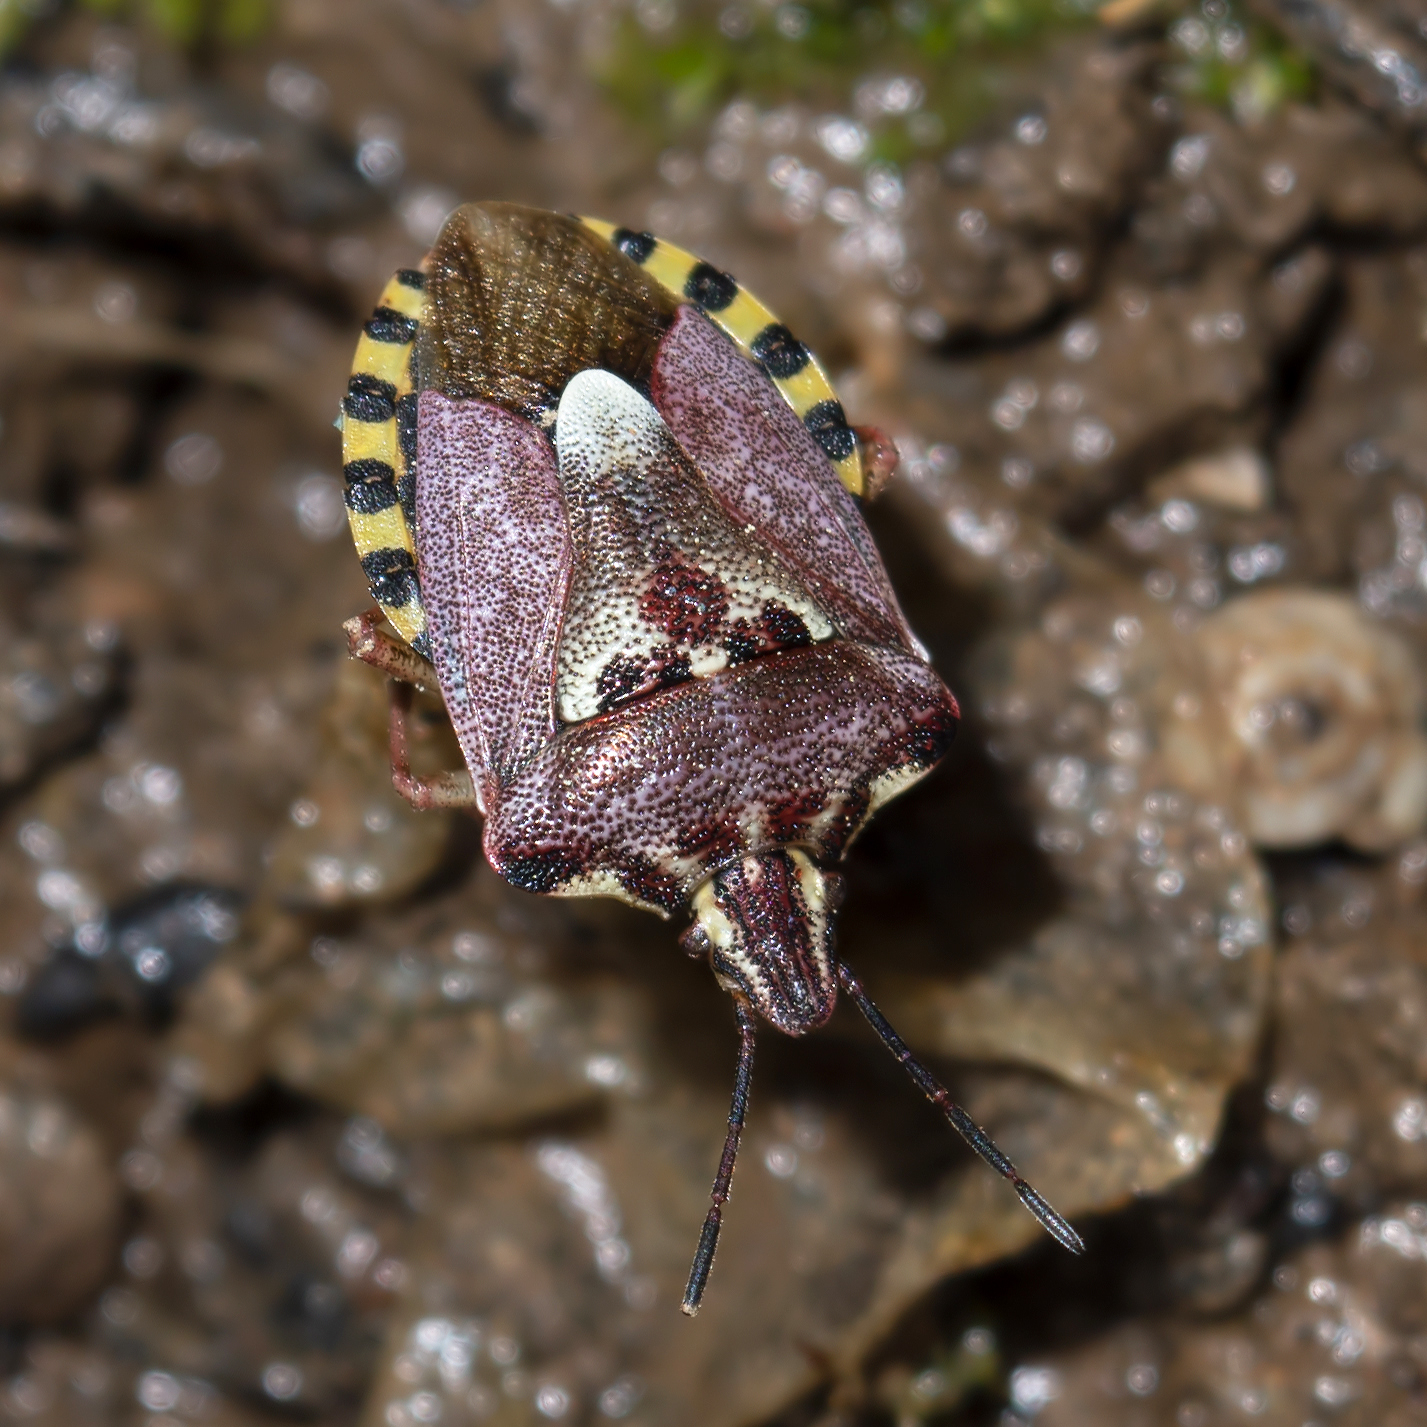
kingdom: Animalia
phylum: Arthropoda
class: Insecta
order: Hemiptera
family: Miridae
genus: Orthops
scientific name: Orthops kalmii
